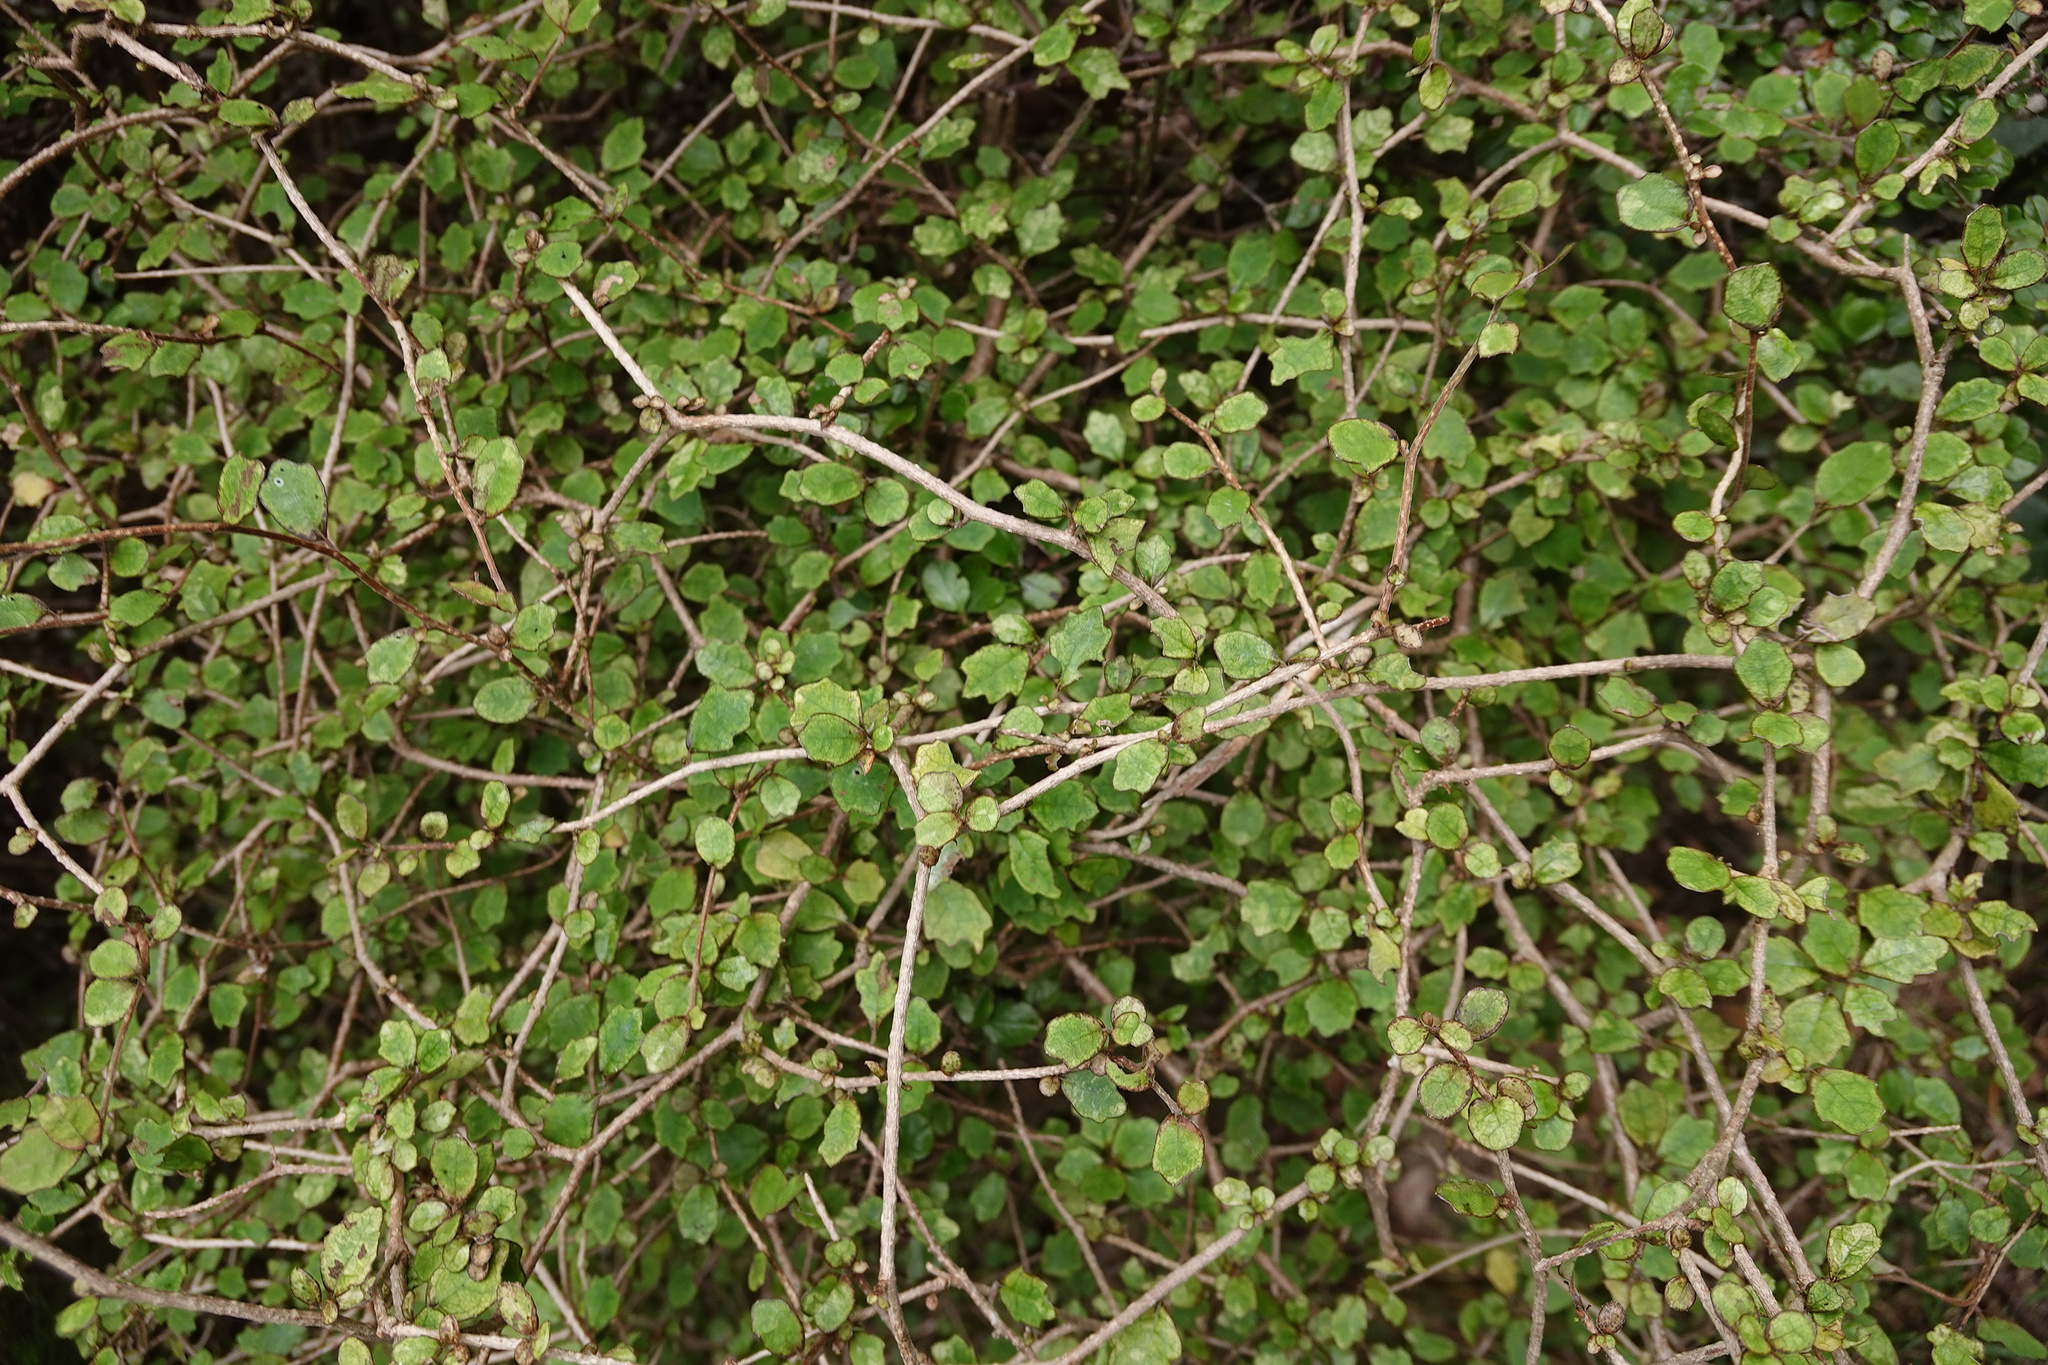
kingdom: Plantae
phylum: Tracheophyta
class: Magnoliopsida
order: Apiales
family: Pennantiaceae
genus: Pennantia
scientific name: Pennantia corymbosa
